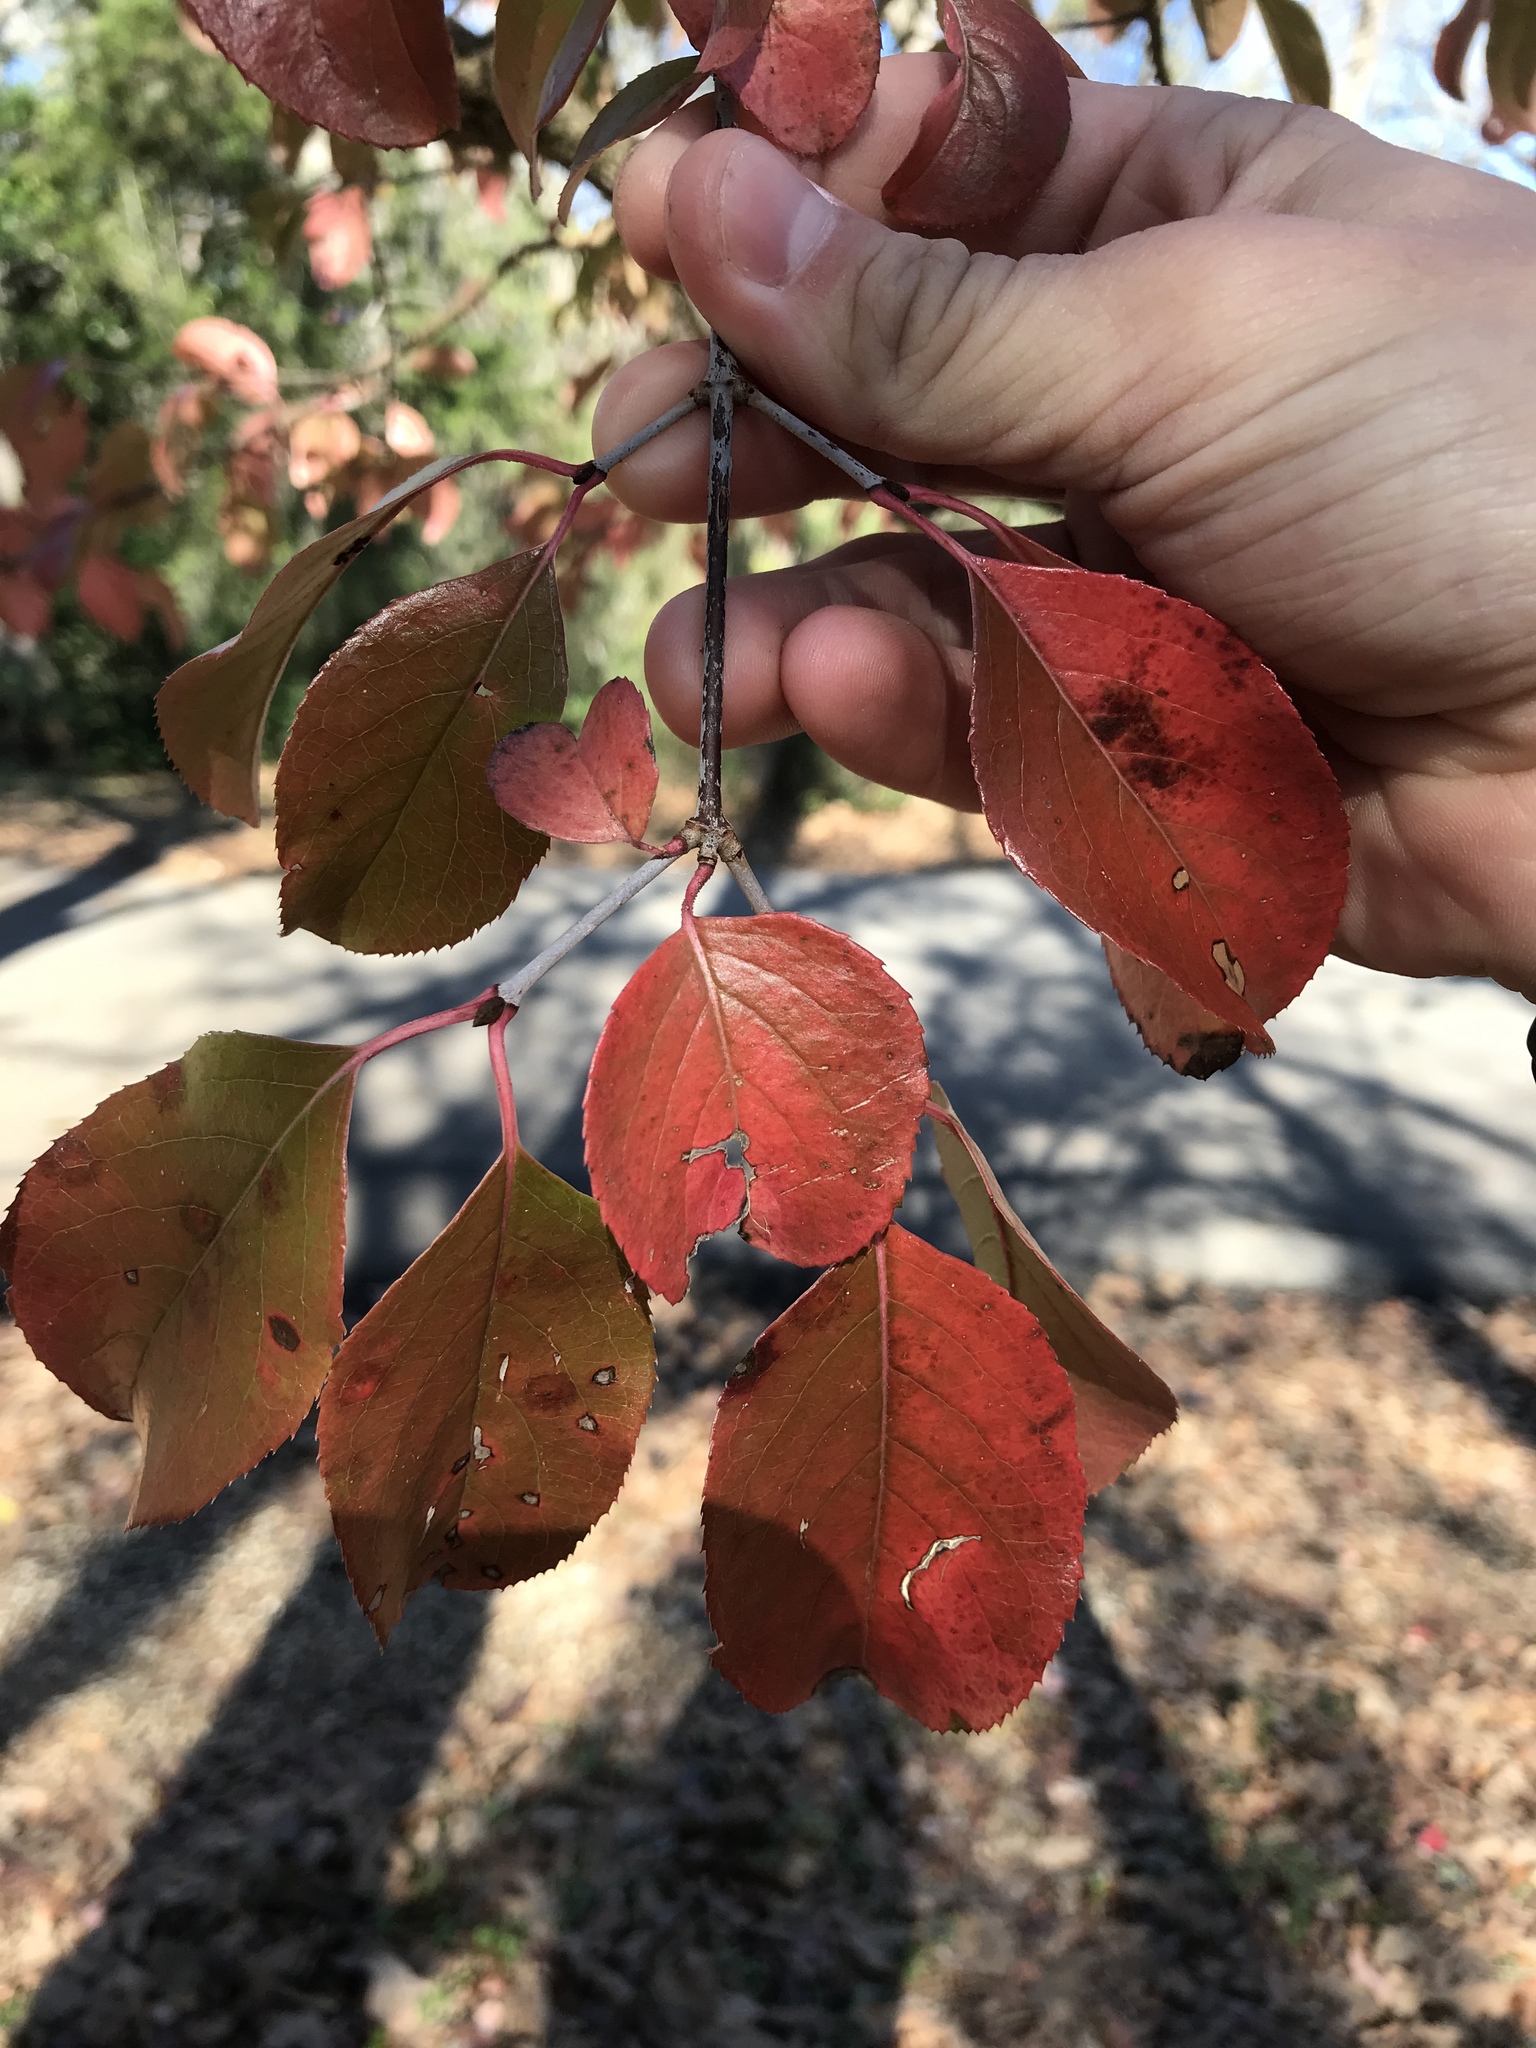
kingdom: Plantae
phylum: Tracheophyta
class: Magnoliopsida
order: Dipsacales
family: Viburnaceae
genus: Viburnum
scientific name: Viburnum rufidulum
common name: Blue haw
